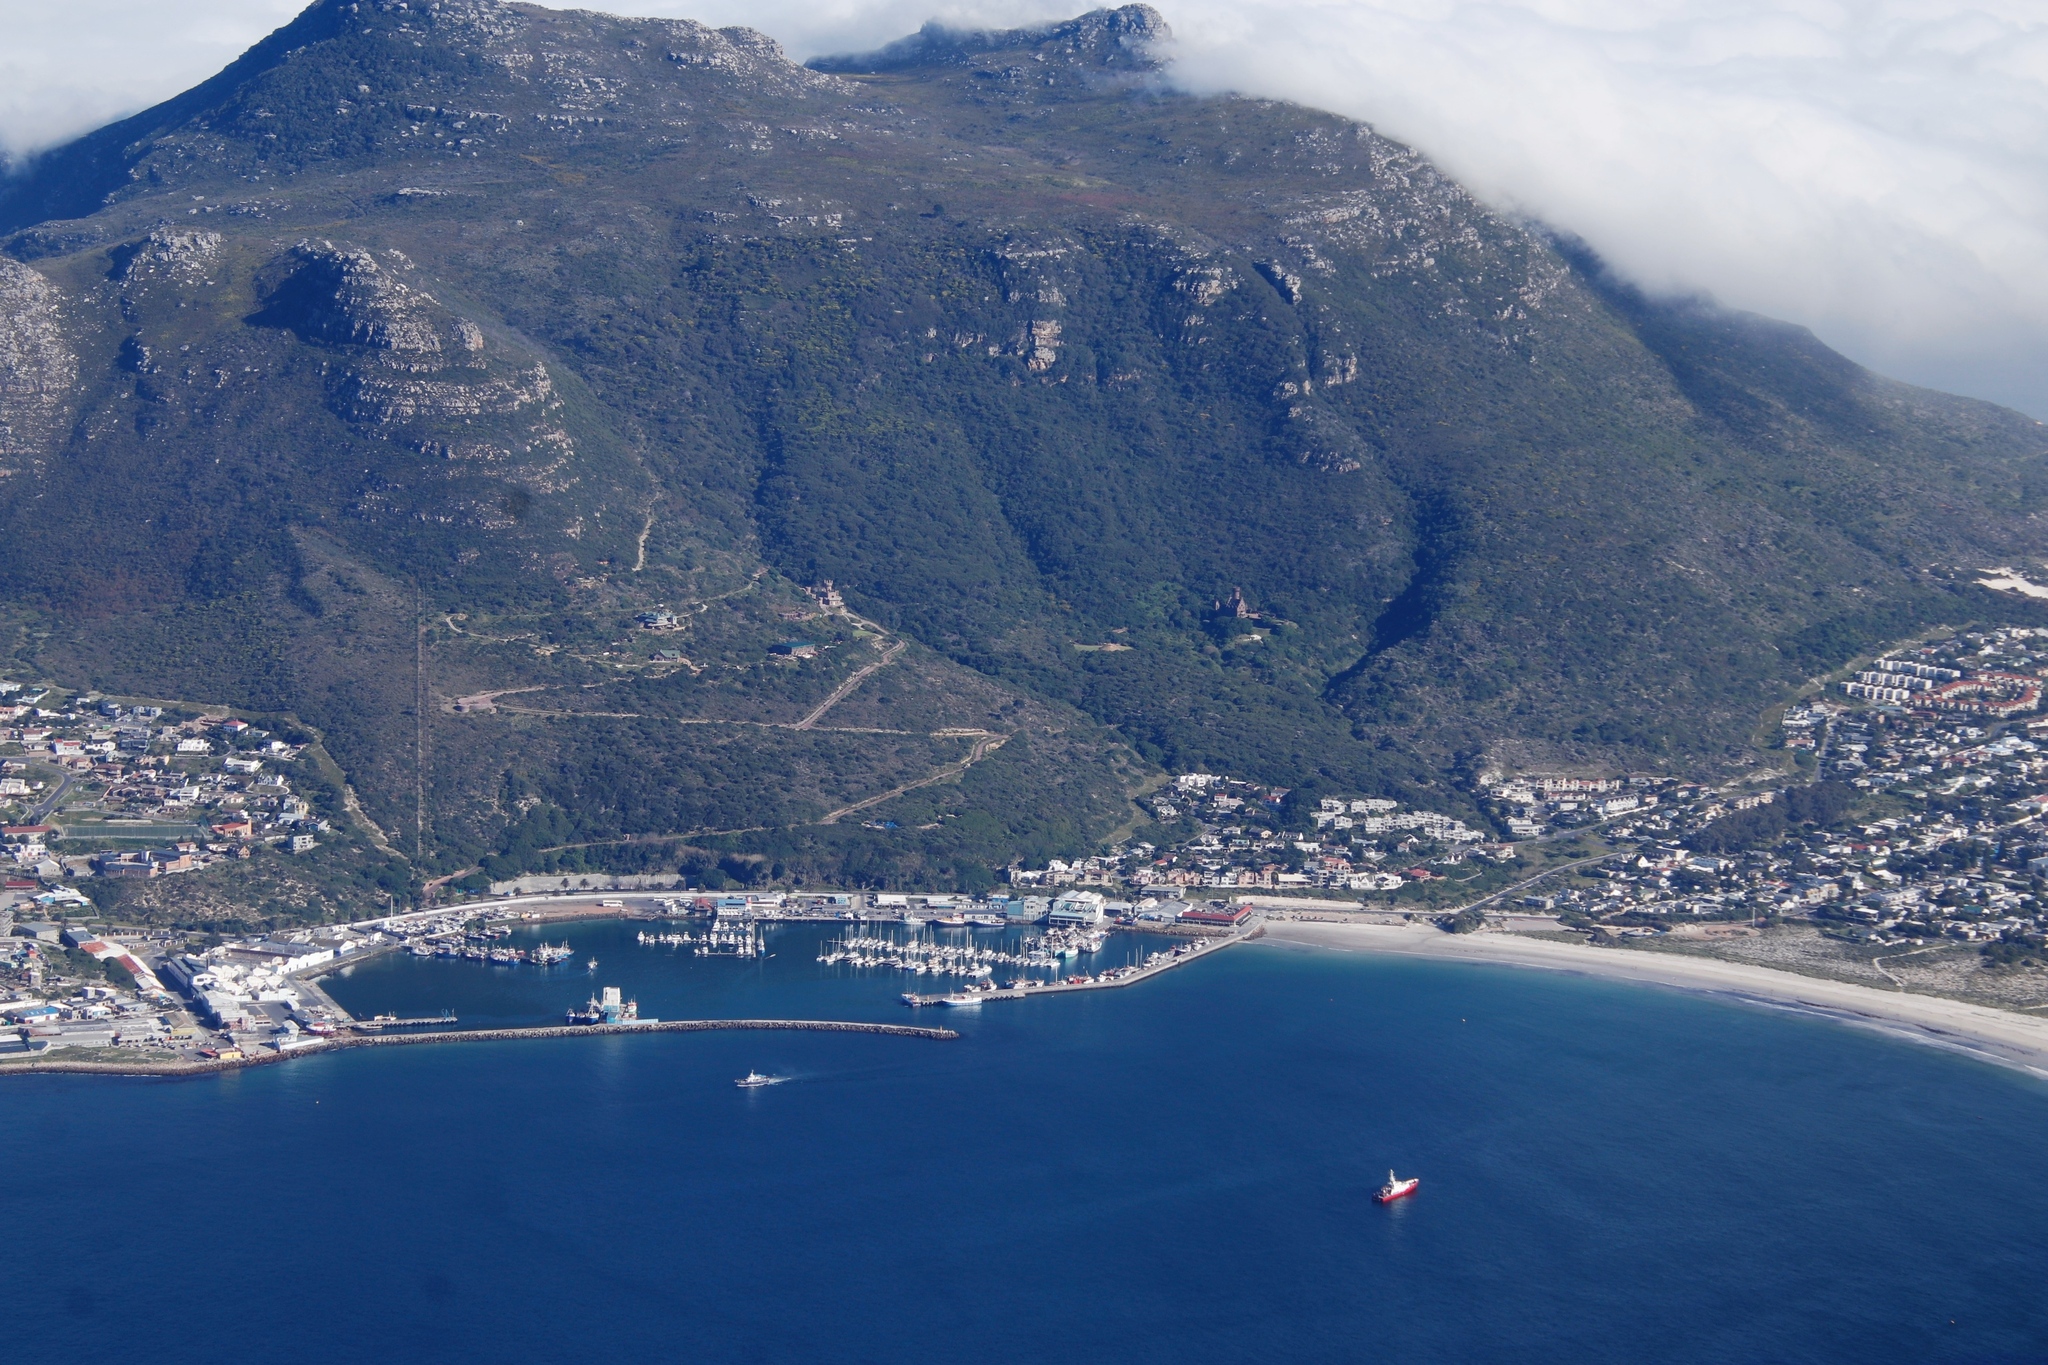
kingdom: Plantae
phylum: Tracheophyta
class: Magnoliopsida
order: Fabales
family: Fabaceae
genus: Acacia
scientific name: Acacia cyclops
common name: Coastal wattle
